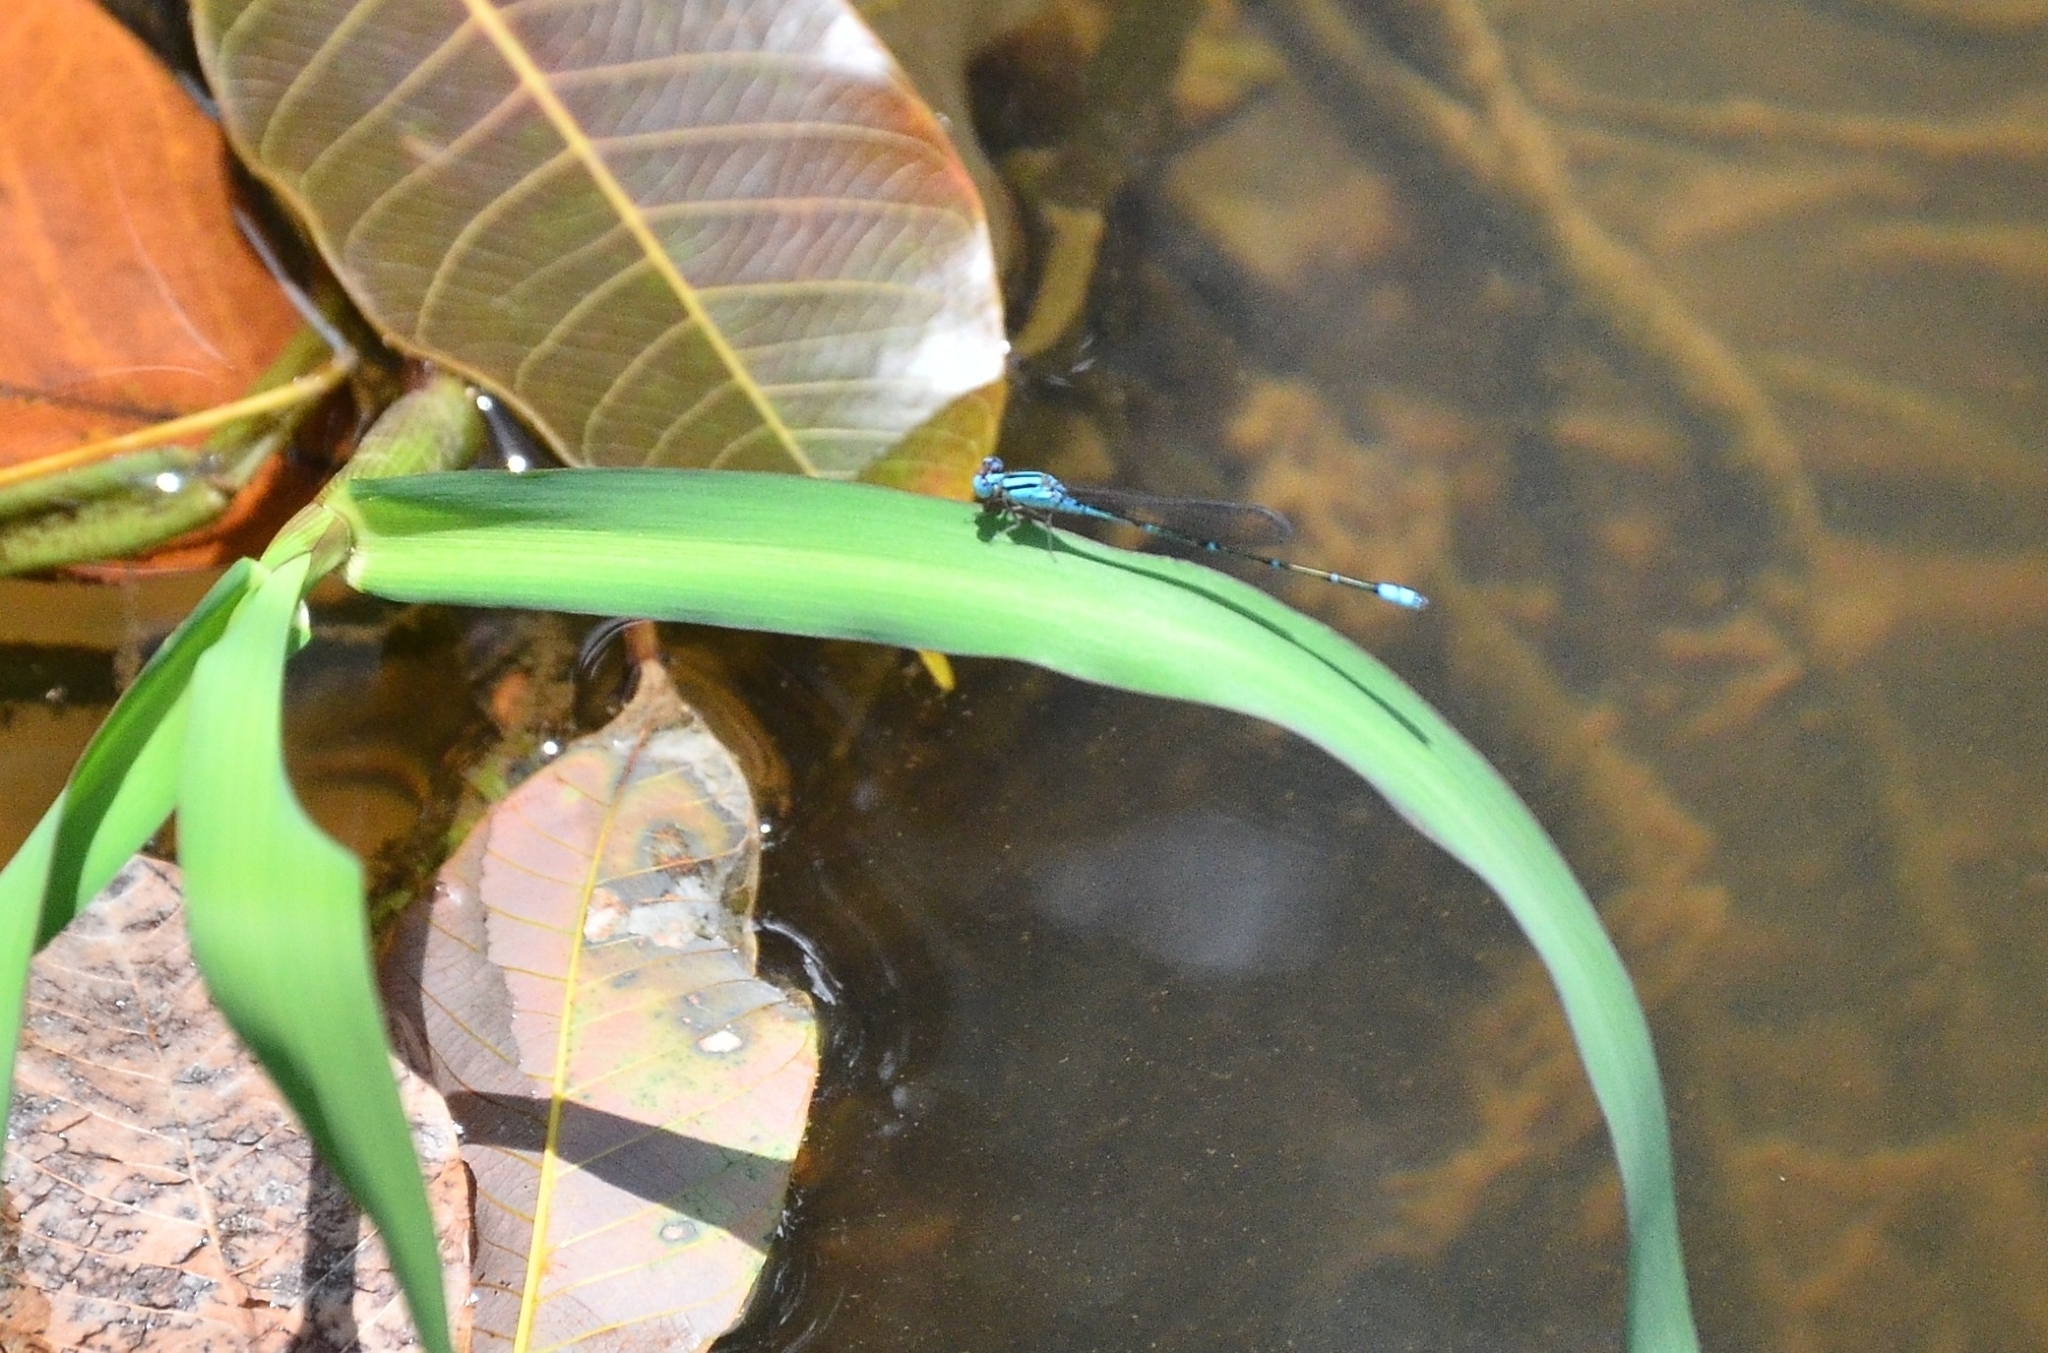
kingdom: Animalia
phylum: Arthropoda
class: Insecta
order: Odonata
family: Coenagrionidae
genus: Pseudagrion
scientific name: Pseudagrion microcephalum
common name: Blue riverdamsel
